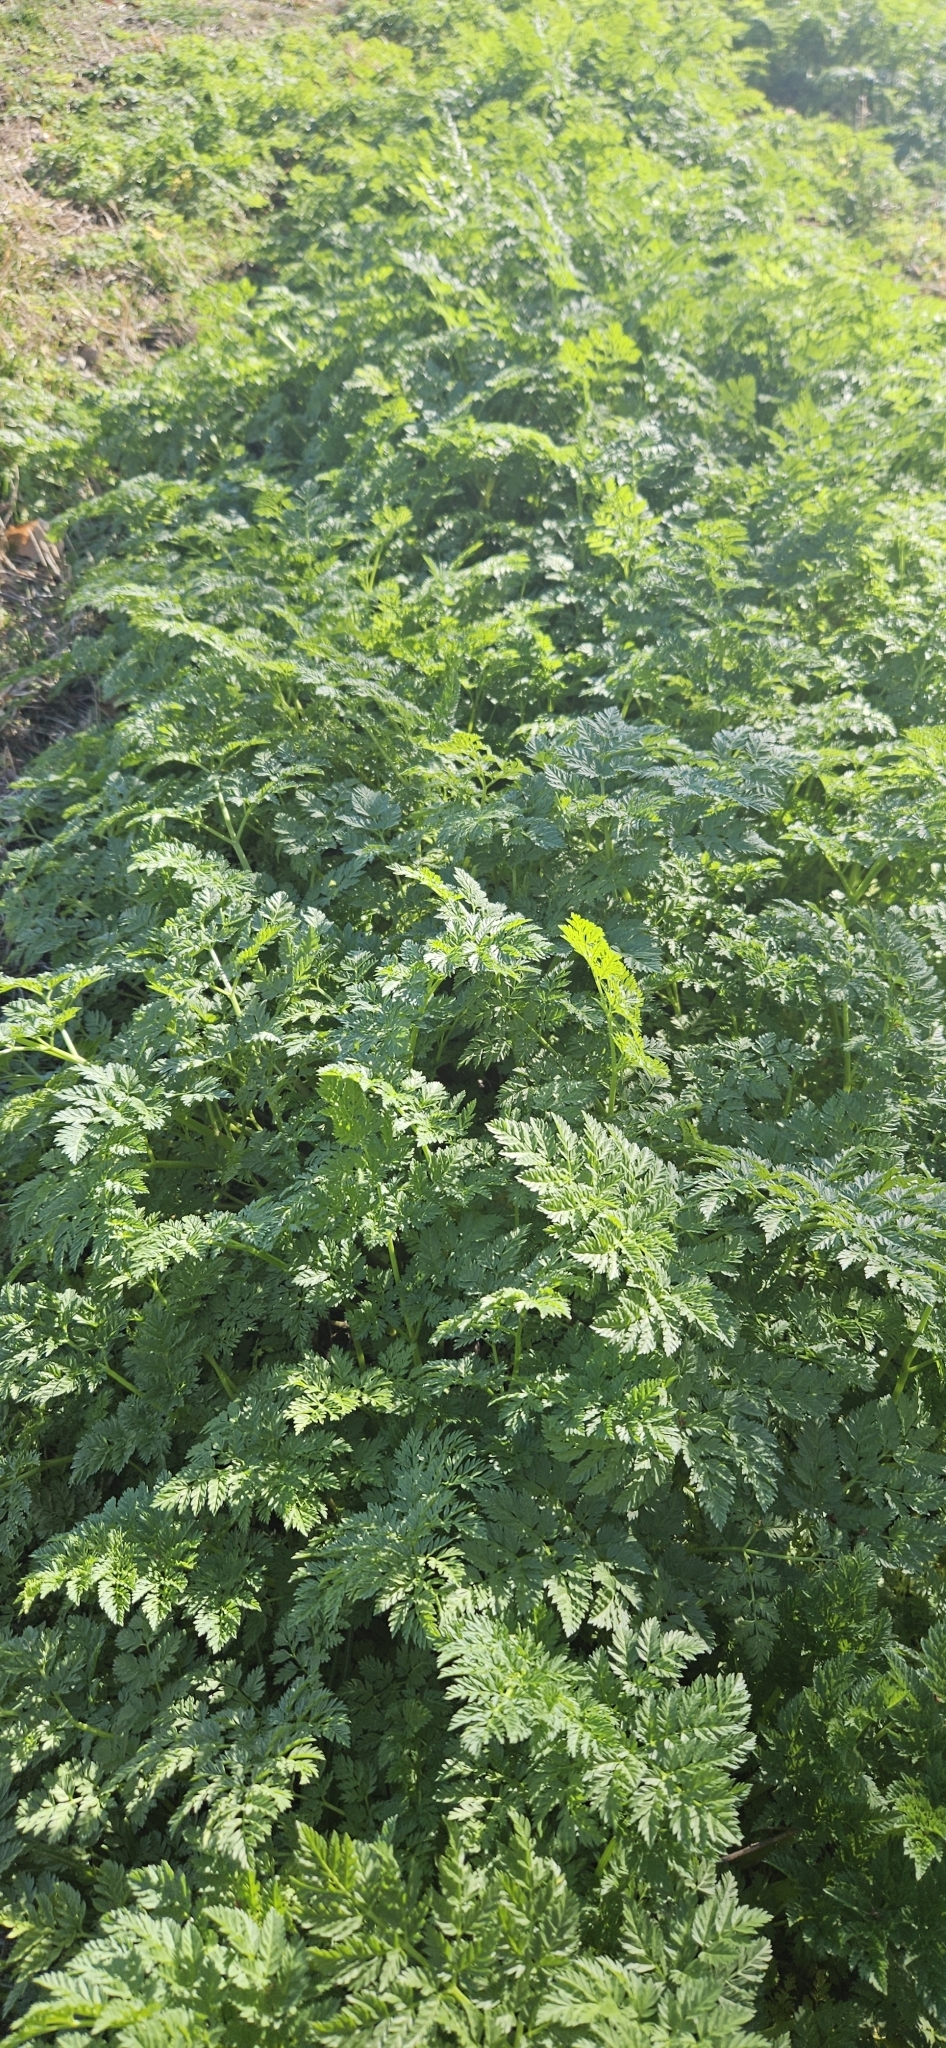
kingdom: Plantae
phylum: Tracheophyta
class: Magnoliopsida
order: Apiales
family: Apiaceae
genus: Conium
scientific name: Conium maculatum
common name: Hemlock
